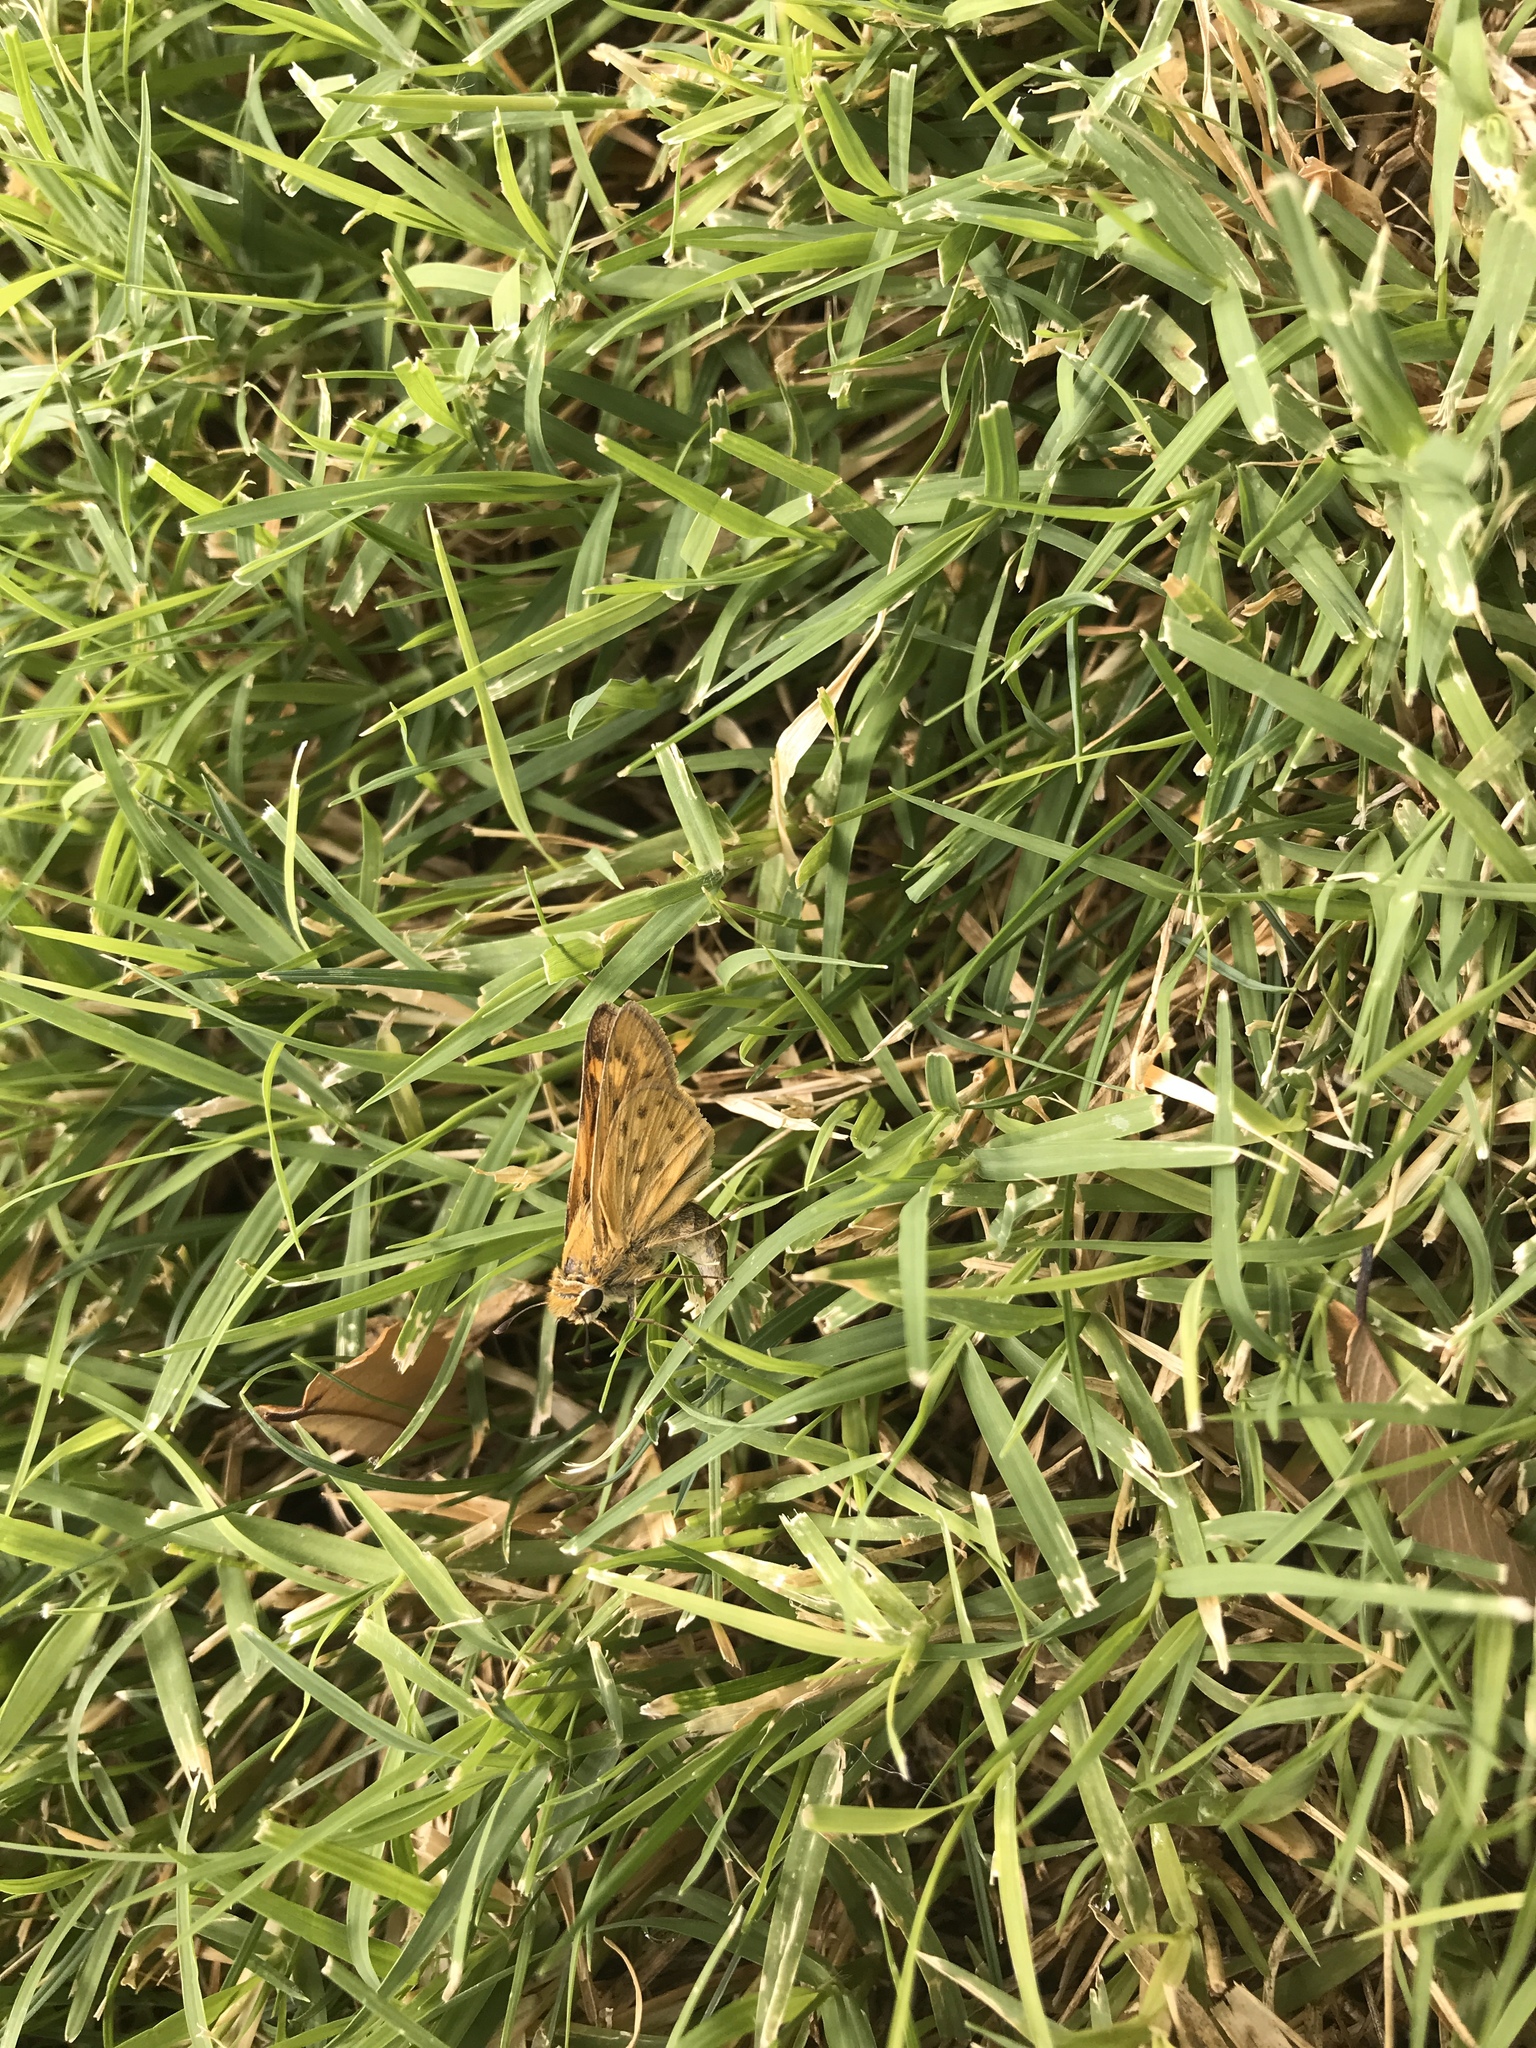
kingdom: Animalia
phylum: Arthropoda
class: Insecta
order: Lepidoptera
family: Hesperiidae
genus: Hylephila
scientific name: Hylephila phyleus
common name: Fiery skipper
